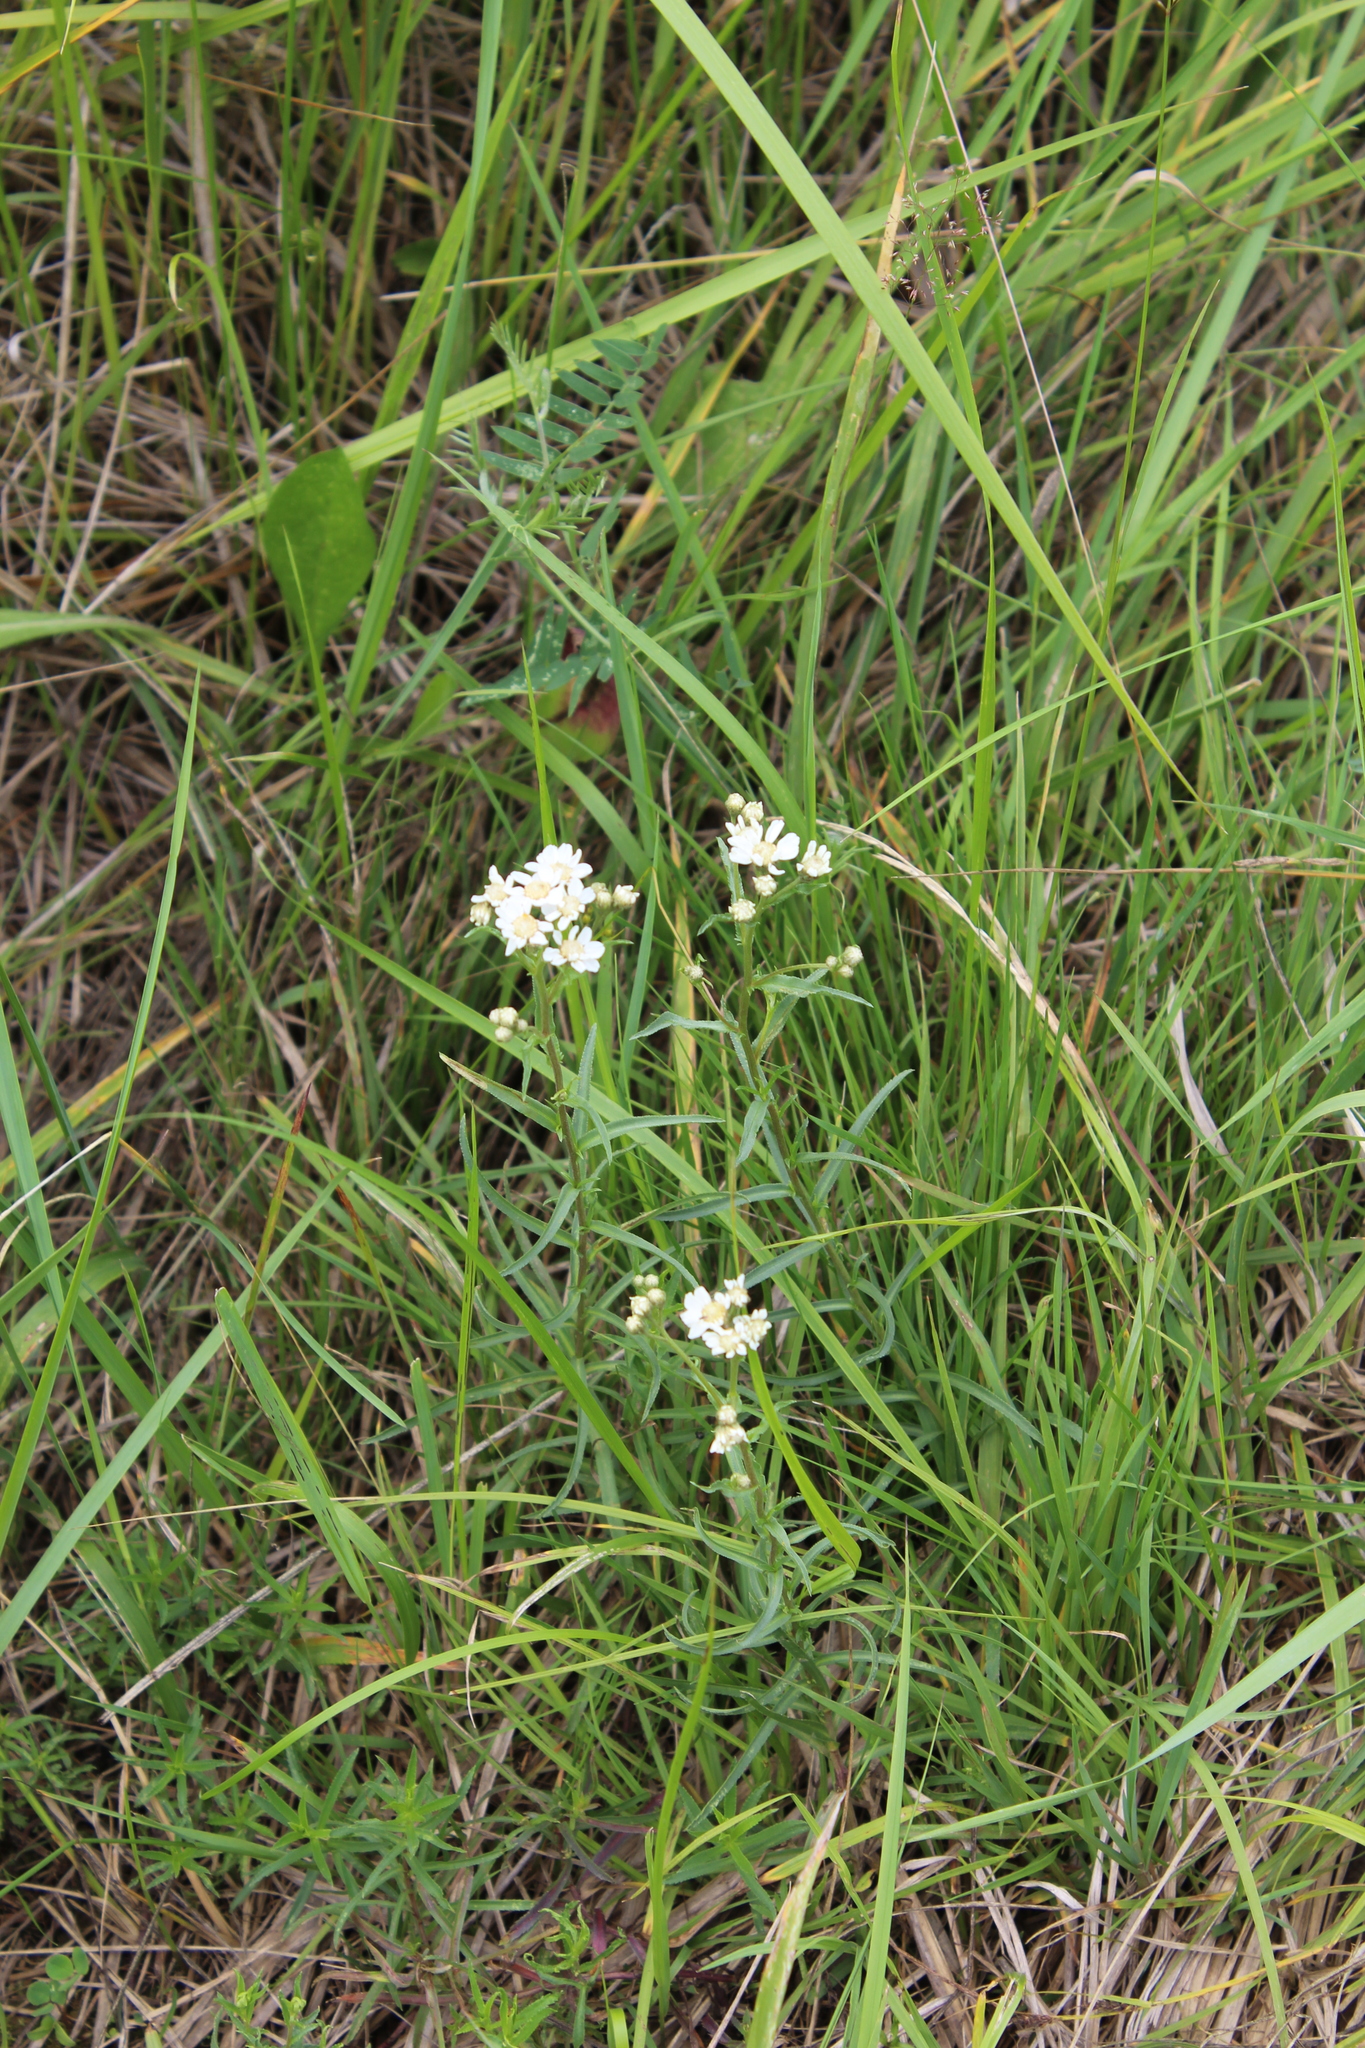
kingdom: Plantae
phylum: Tracheophyta
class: Magnoliopsida
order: Asterales
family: Asteraceae
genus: Achillea
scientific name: Achillea ptarmica
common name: Sneezeweed
